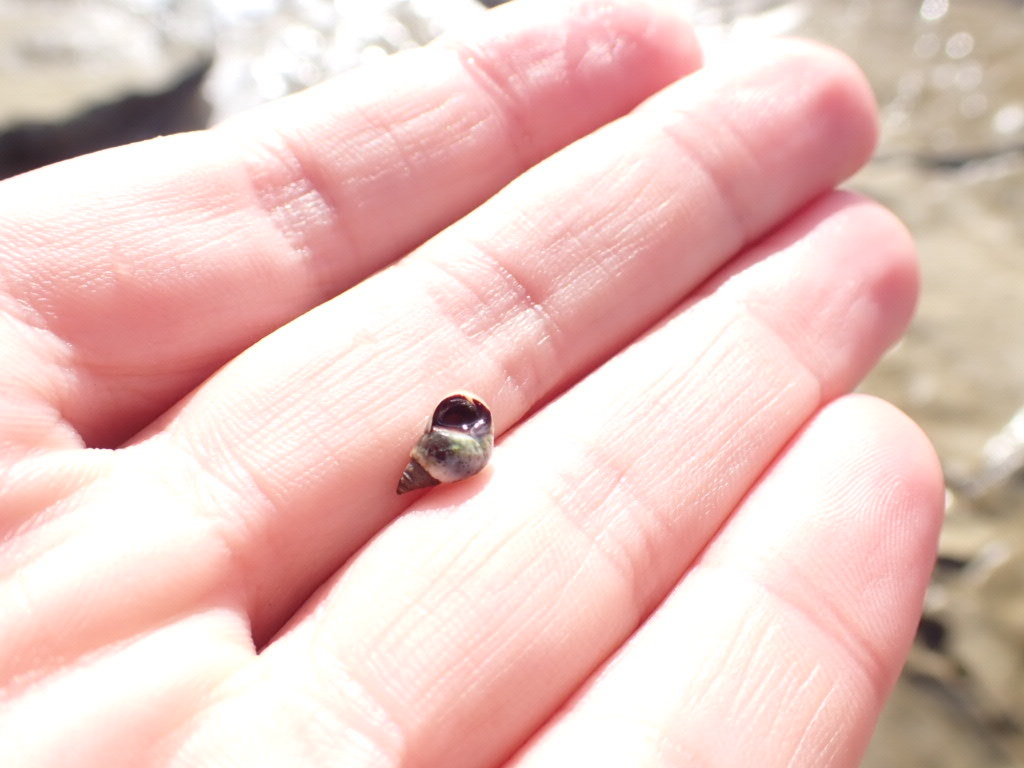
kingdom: Animalia
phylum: Mollusca
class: Gastropoda
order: Littorinimorpha
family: Littorinidae
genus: Austrolittorina
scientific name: Austrolittorina antipodum
